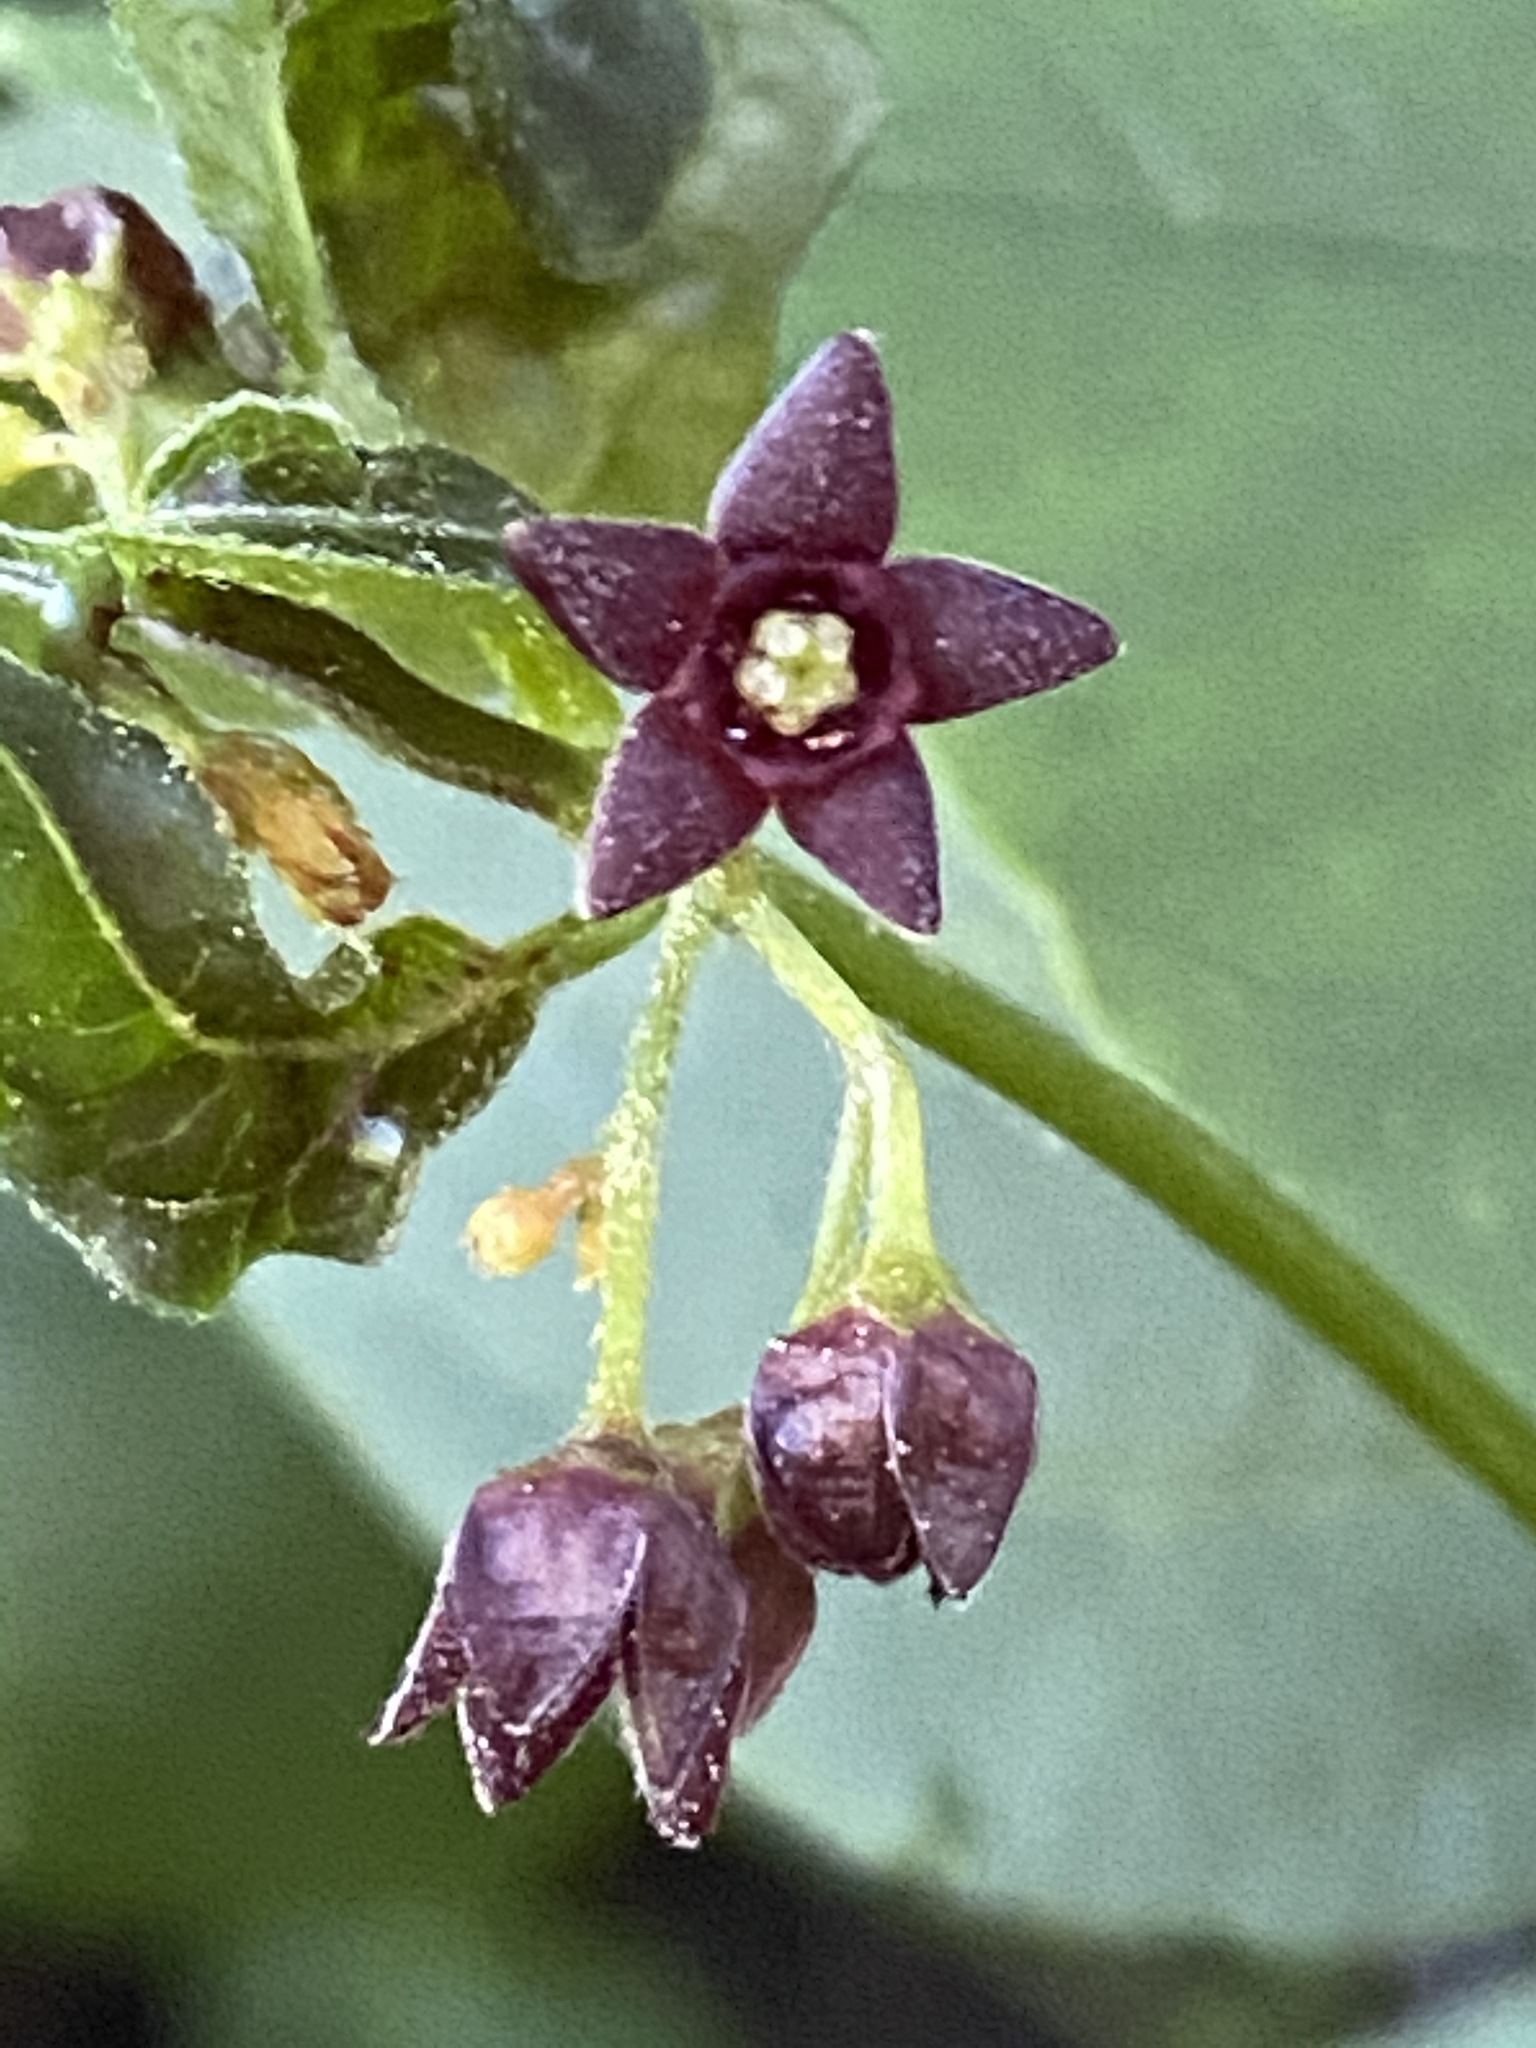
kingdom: Plantae
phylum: Tracheophyta
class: Magnoliopsida
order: Gentianales
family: Apocynaceae
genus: Vincetoxicum
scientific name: Vincetoxicum nigrum
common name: Black swallow-wort
